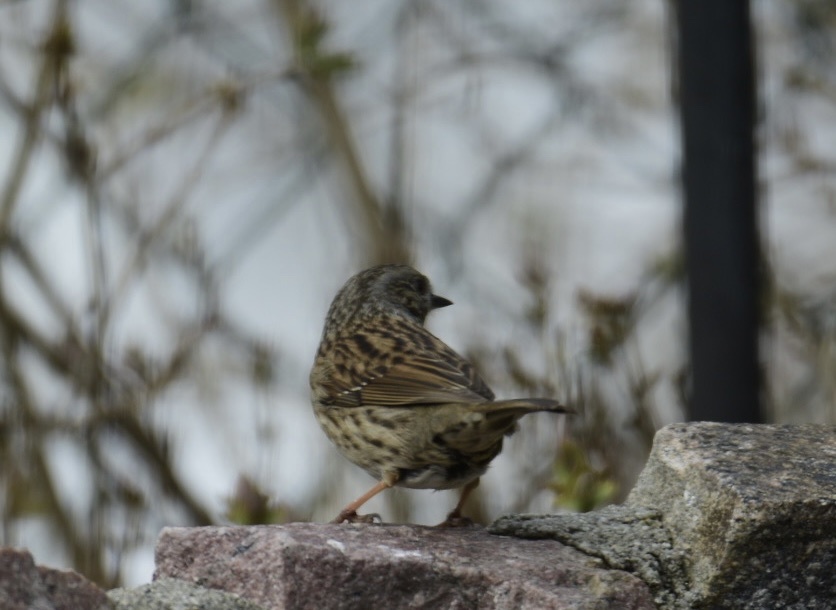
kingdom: Animalia
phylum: Chordata
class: Aves
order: Passeriformes
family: Prunellidae
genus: Prunella
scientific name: Prunella modularis
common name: Dunnock
